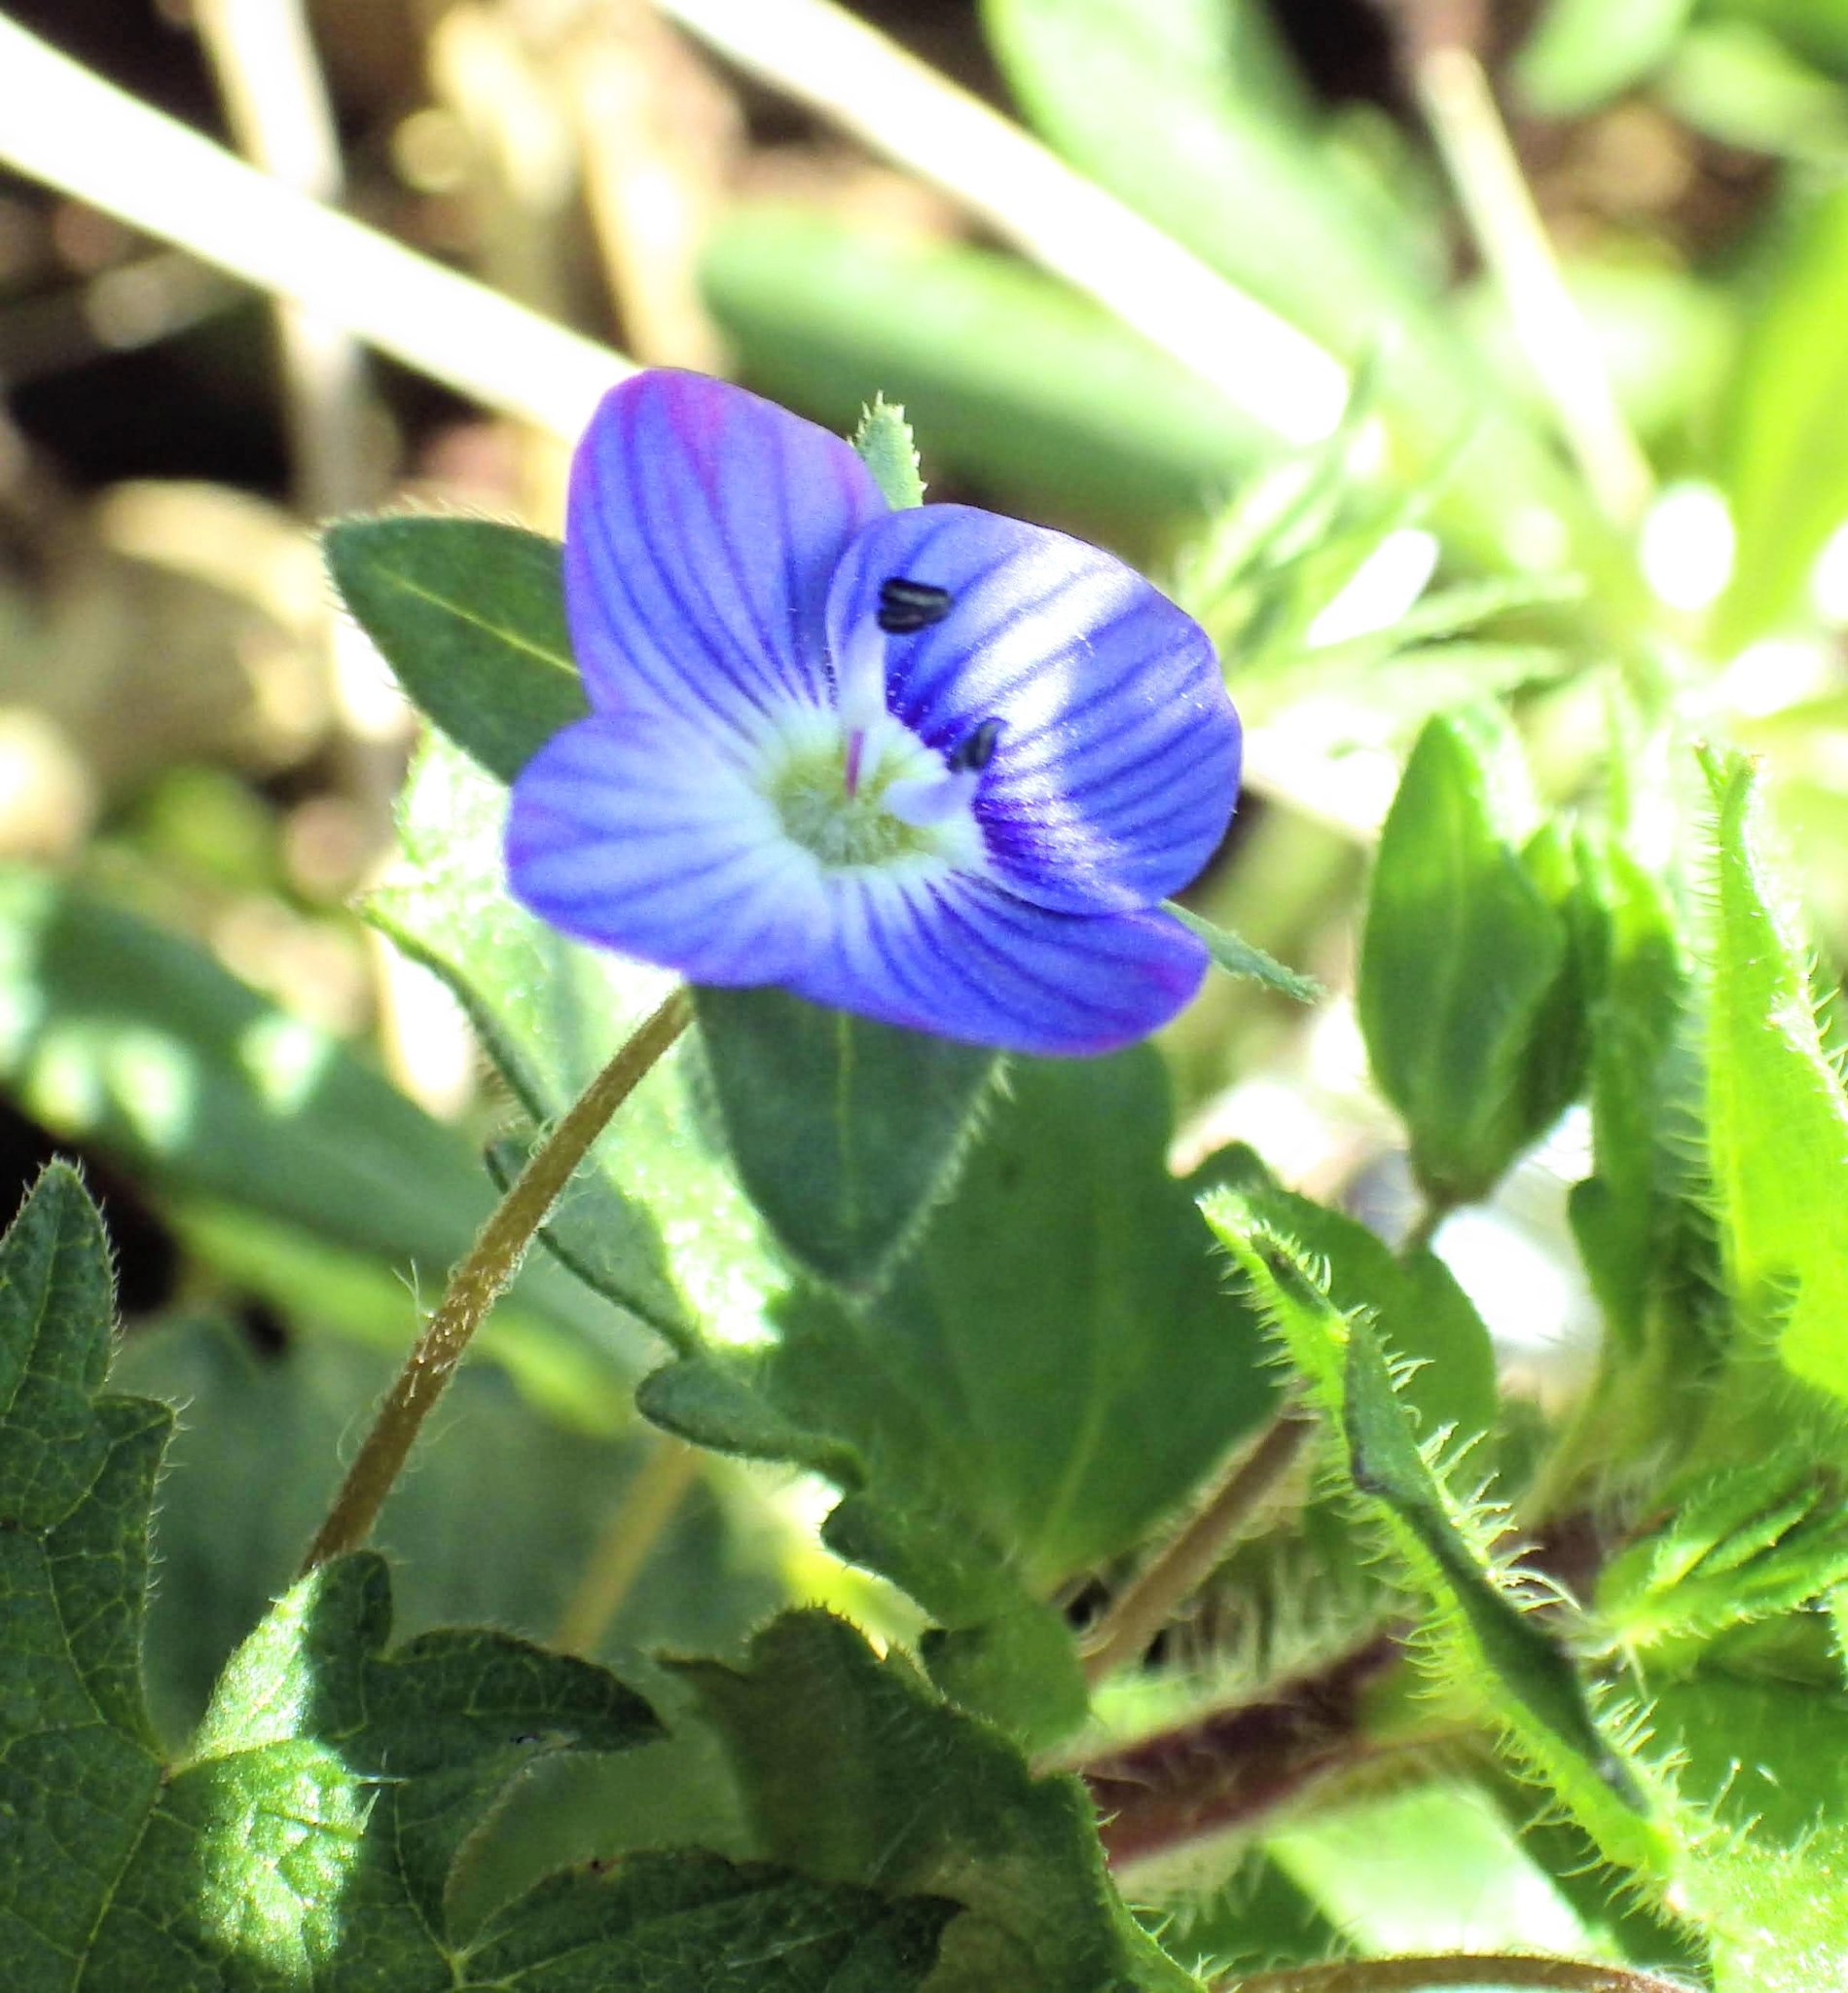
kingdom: Plantae
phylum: Tracheophyta
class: Magnoliopsida
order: Lamiales
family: Plantaginaceae
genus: Veronica
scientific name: Veronica persica
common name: Common field-speedwell
